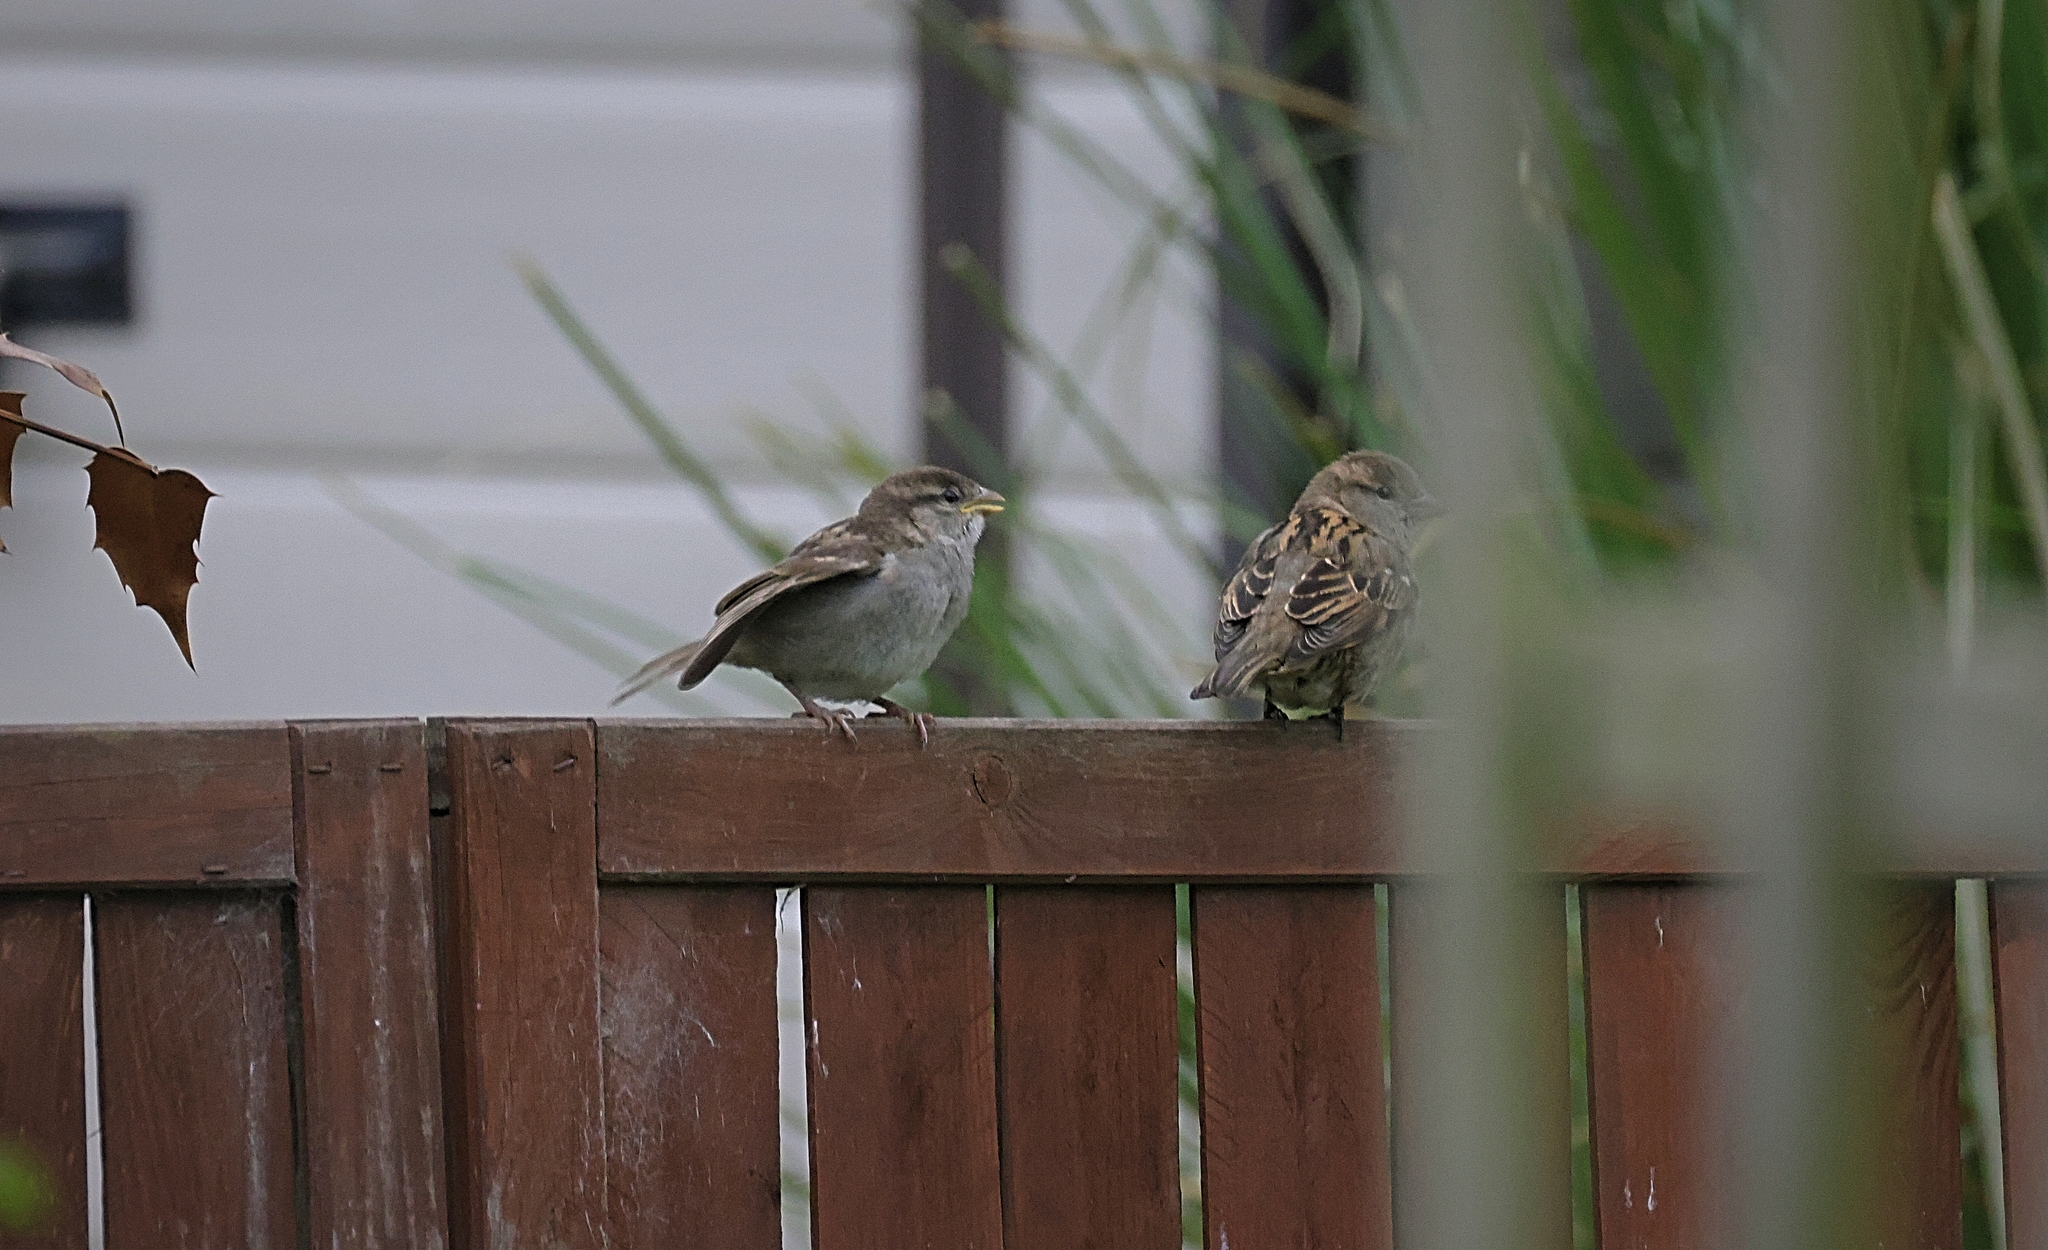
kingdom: Animalia
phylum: Chordata
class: Aves
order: Passeriformes
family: Passeridae
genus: Passer
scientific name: Passer domesticus
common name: House sparrow
